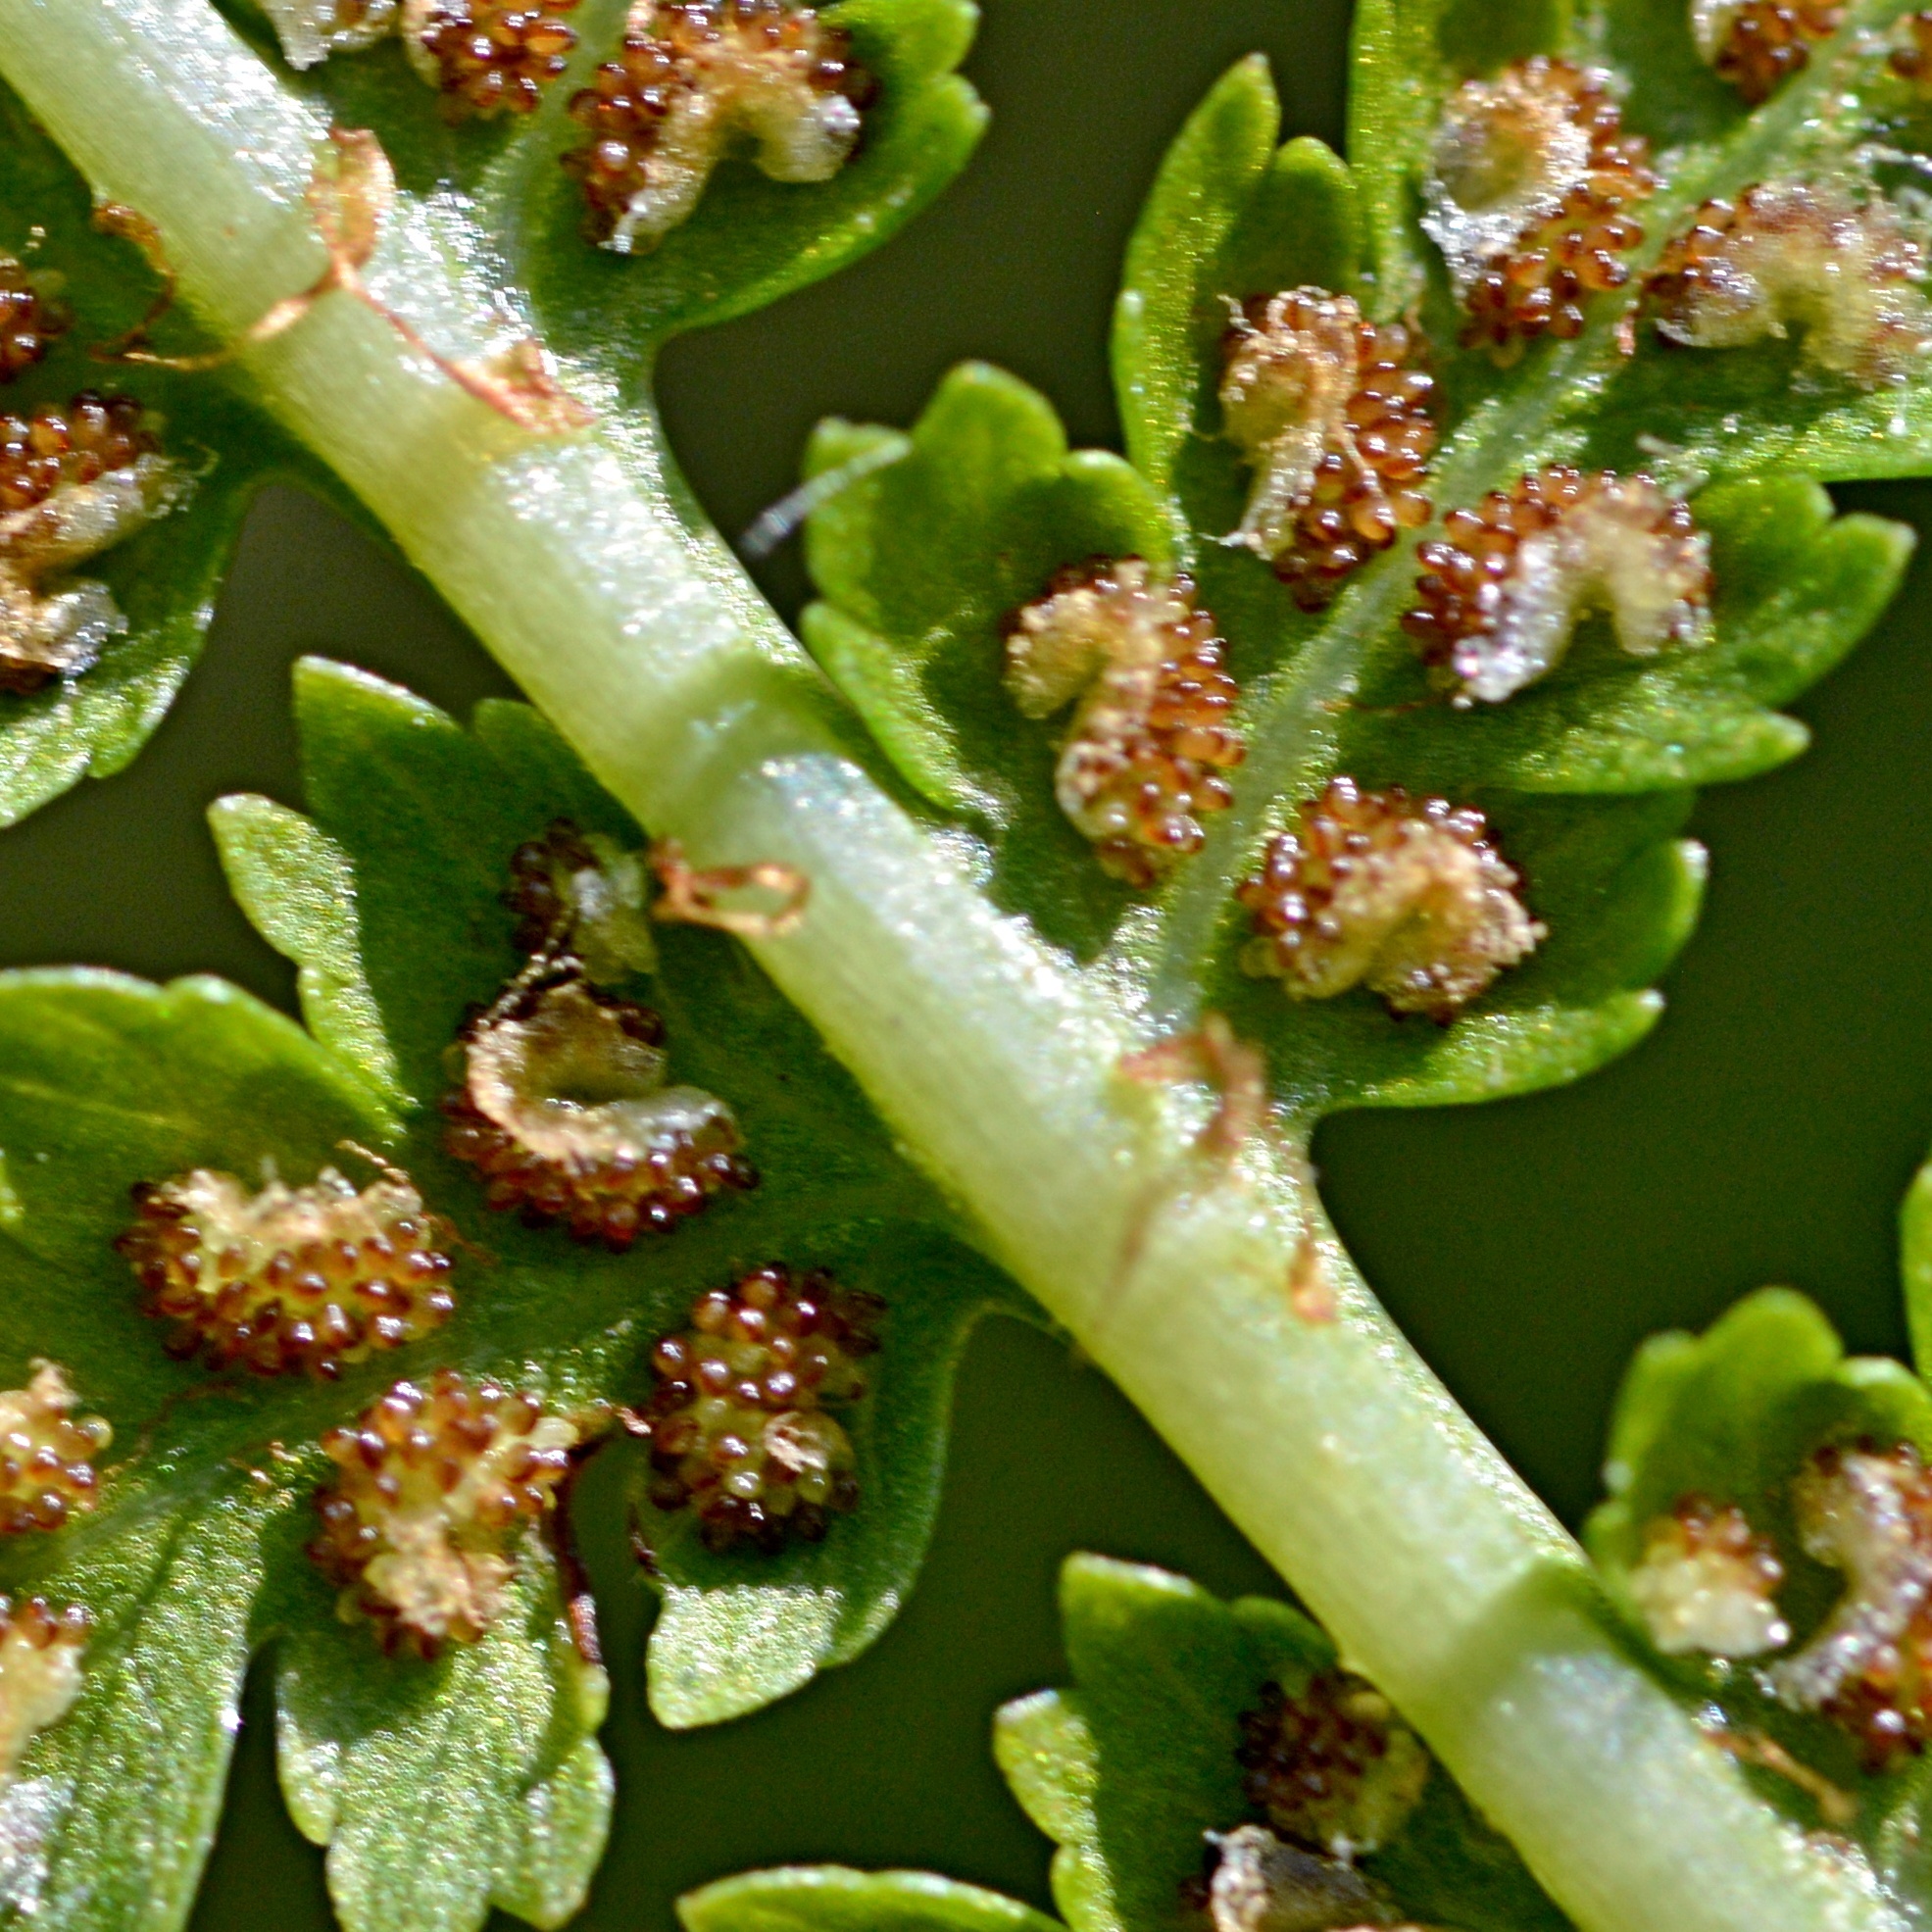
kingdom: Plantae
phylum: Tracheophyta
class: Polypodiopsida
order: Polypodiales
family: Athyriaceae
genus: Athyrium
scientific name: Athyrium filix-femina
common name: Lady fern
